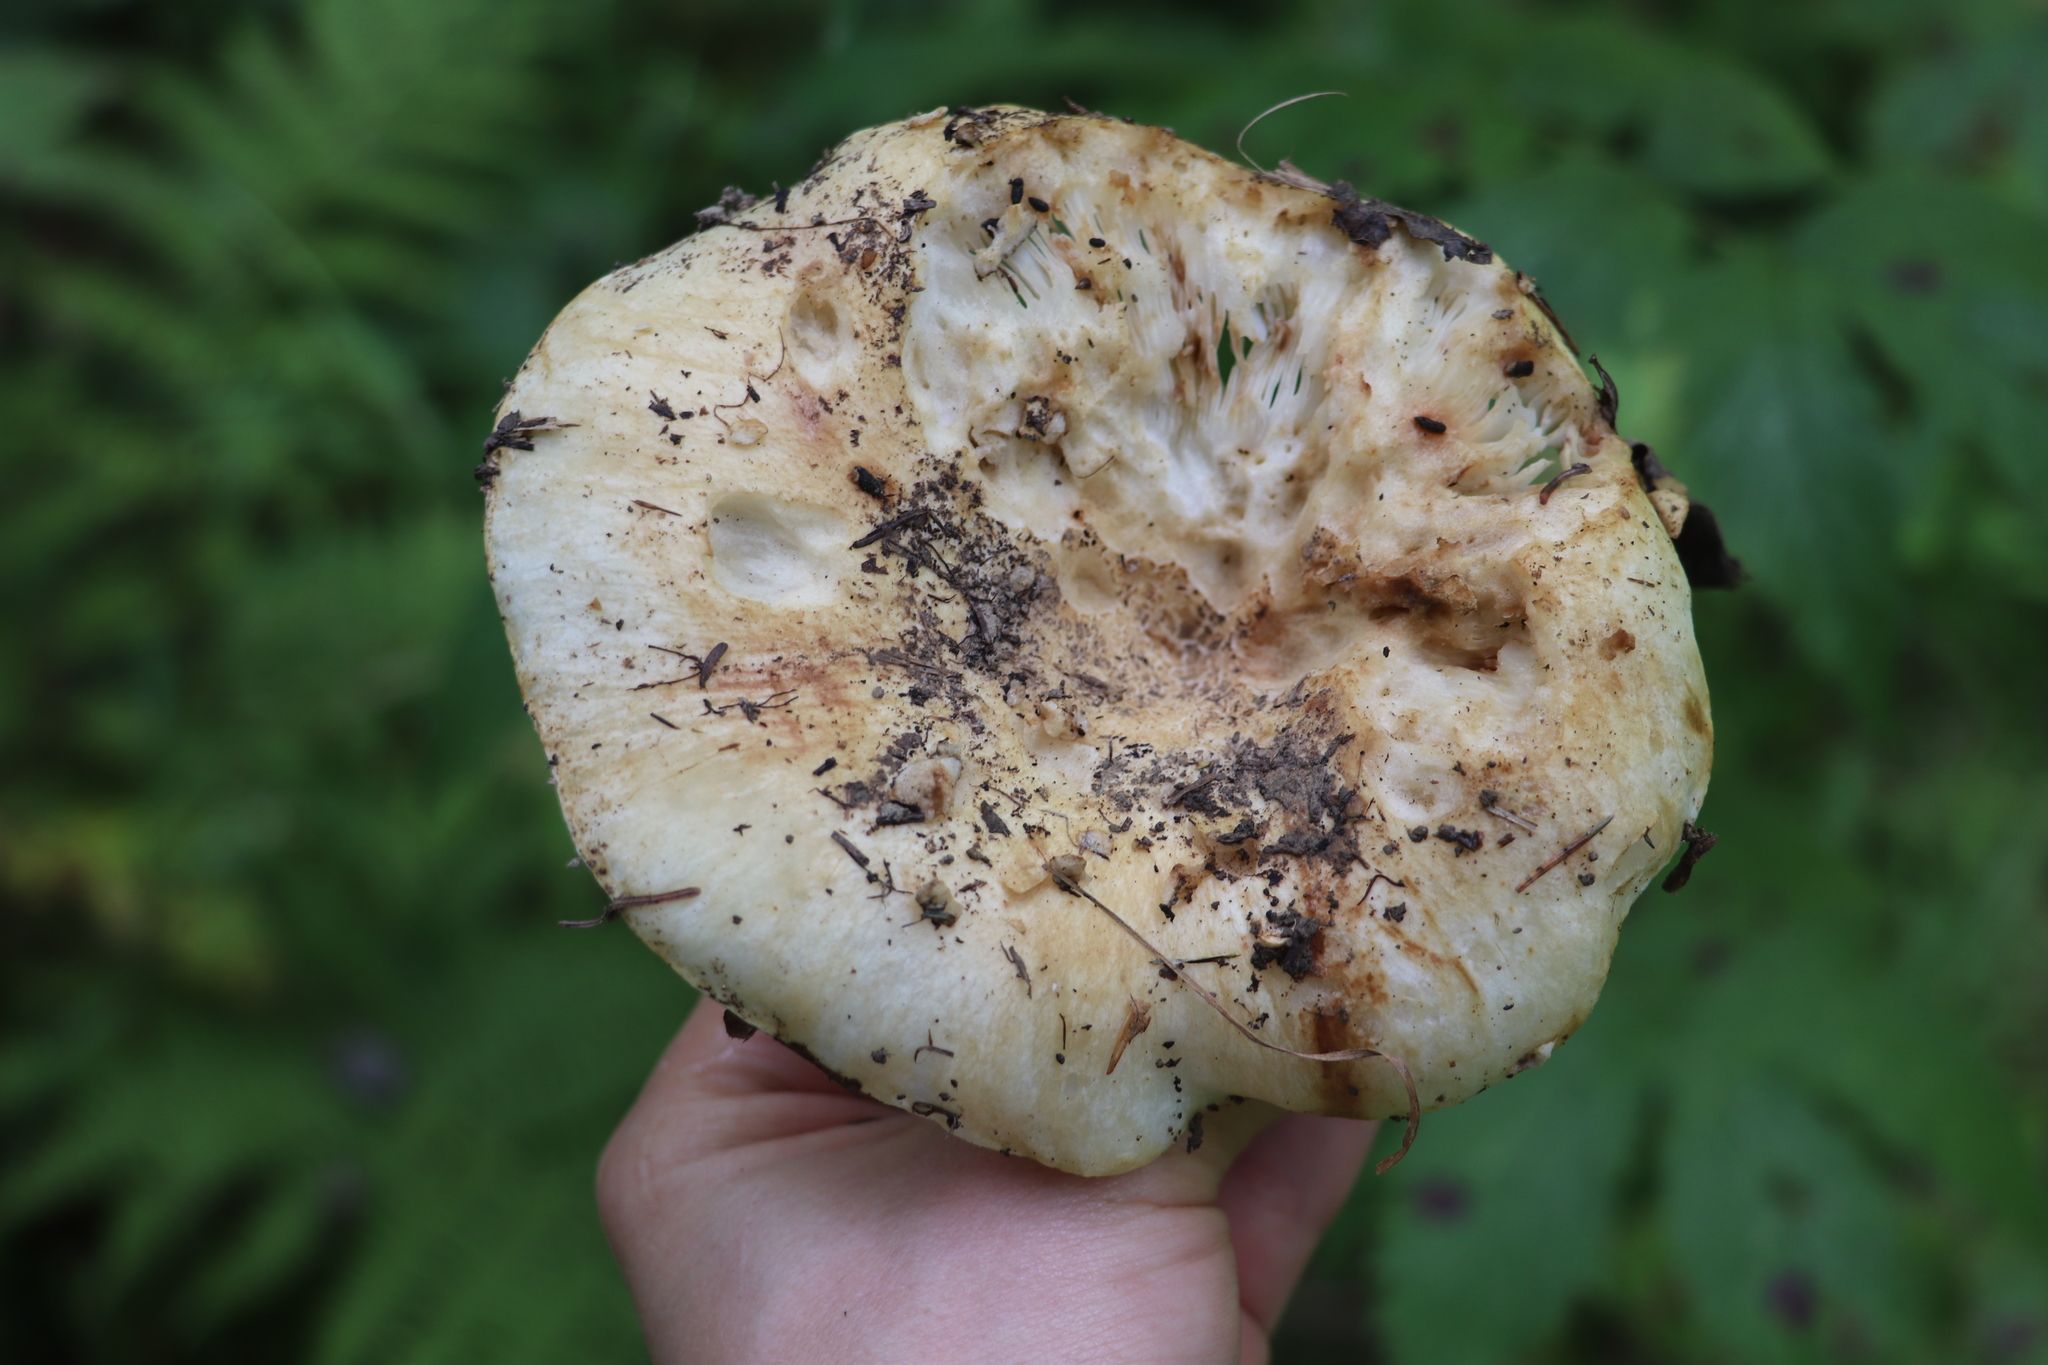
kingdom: Fungi
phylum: Basidiomycota
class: Agaricomycetes
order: Russulales
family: Russulaceae
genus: Russula
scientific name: Russula delica
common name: Milk white brittlegill
